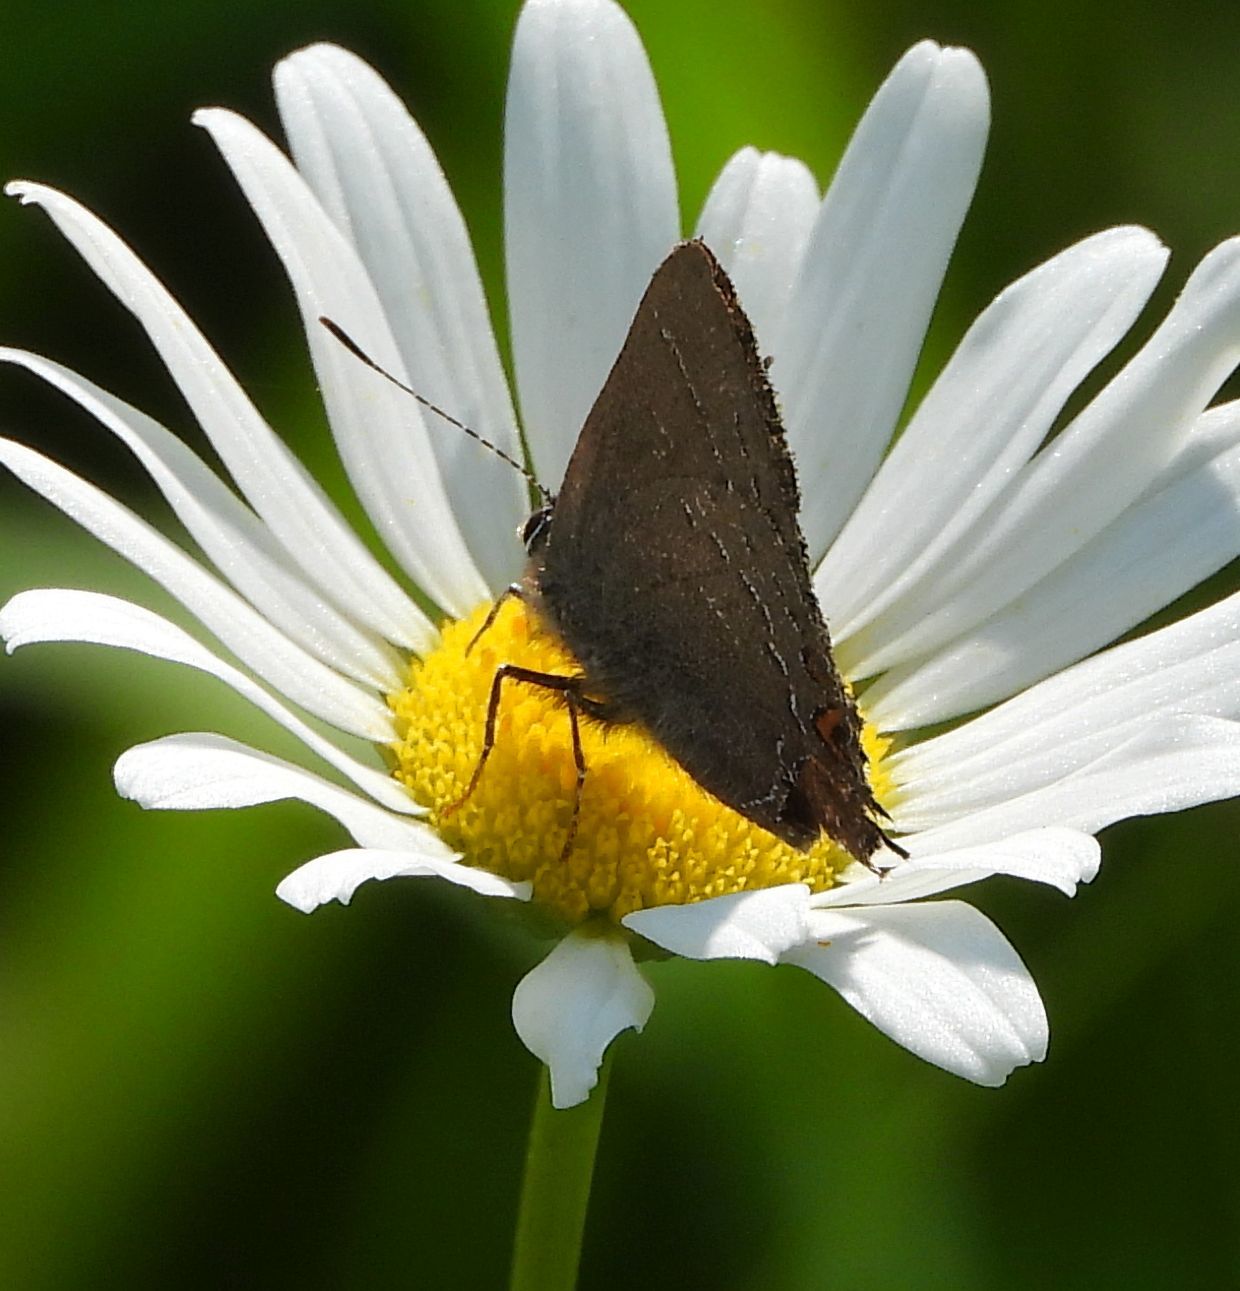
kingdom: Animalia
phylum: Arthropoda
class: Insecta
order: Lepidoptera
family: Lycaenidae
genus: Satyrium
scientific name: Satyrium calanus
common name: Banded hairstreak
